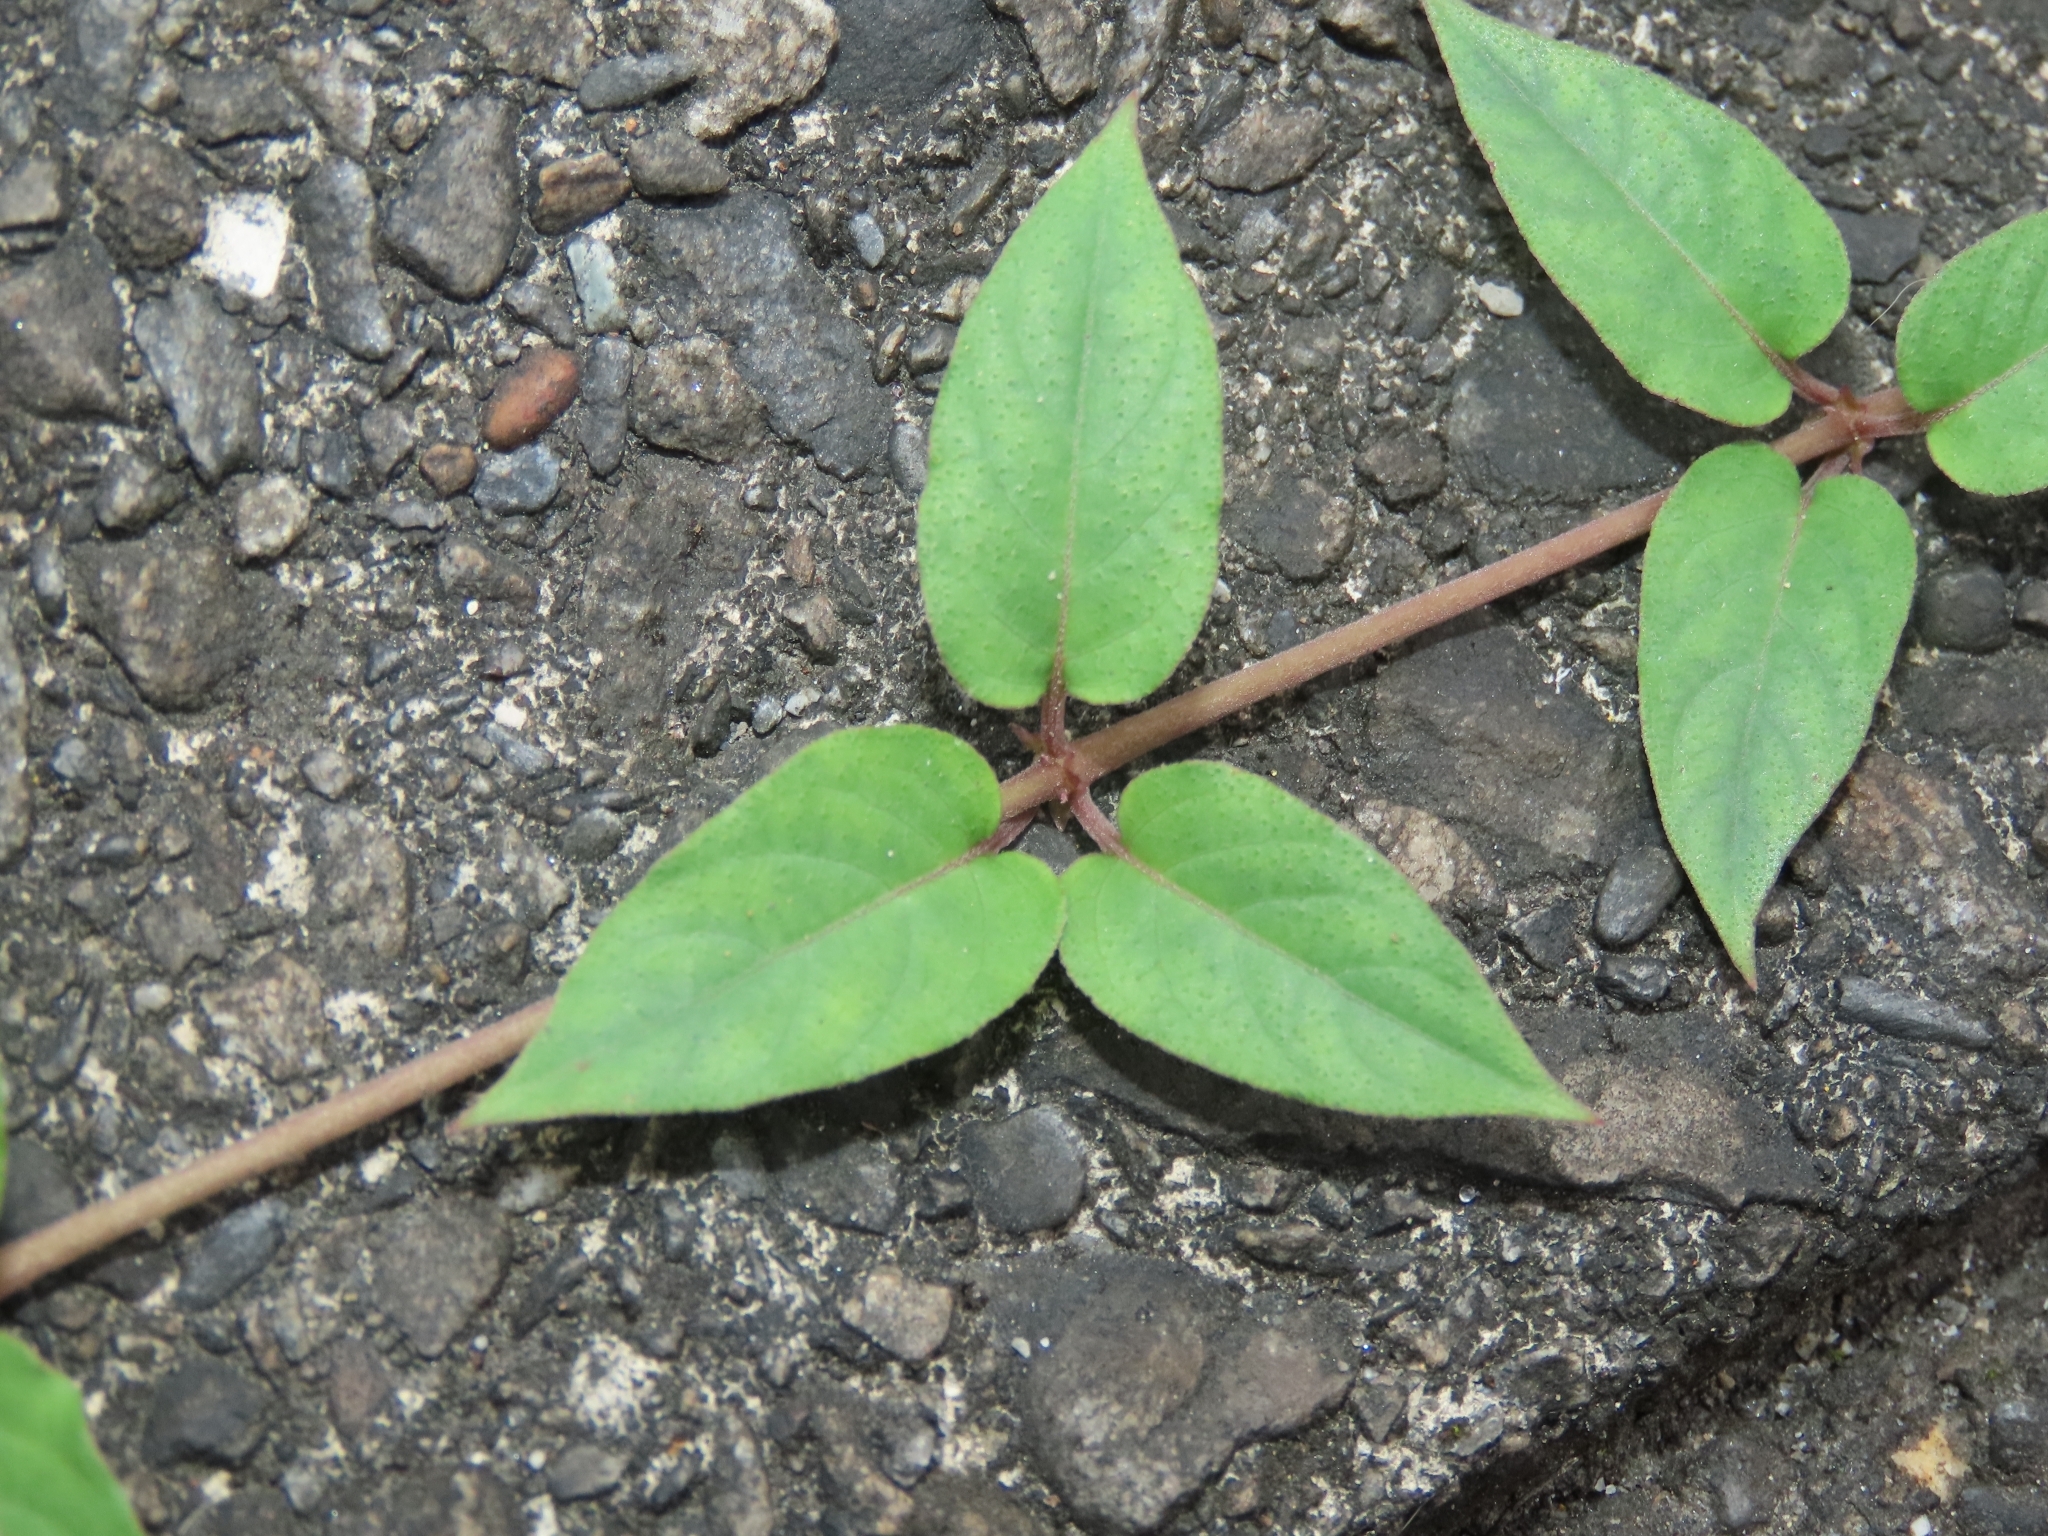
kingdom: Plantae
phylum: Tracheophyta
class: Magnoliopsida
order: Gentianales
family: Rubiaceae
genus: Paederia
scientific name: Paederia cavaleriei
